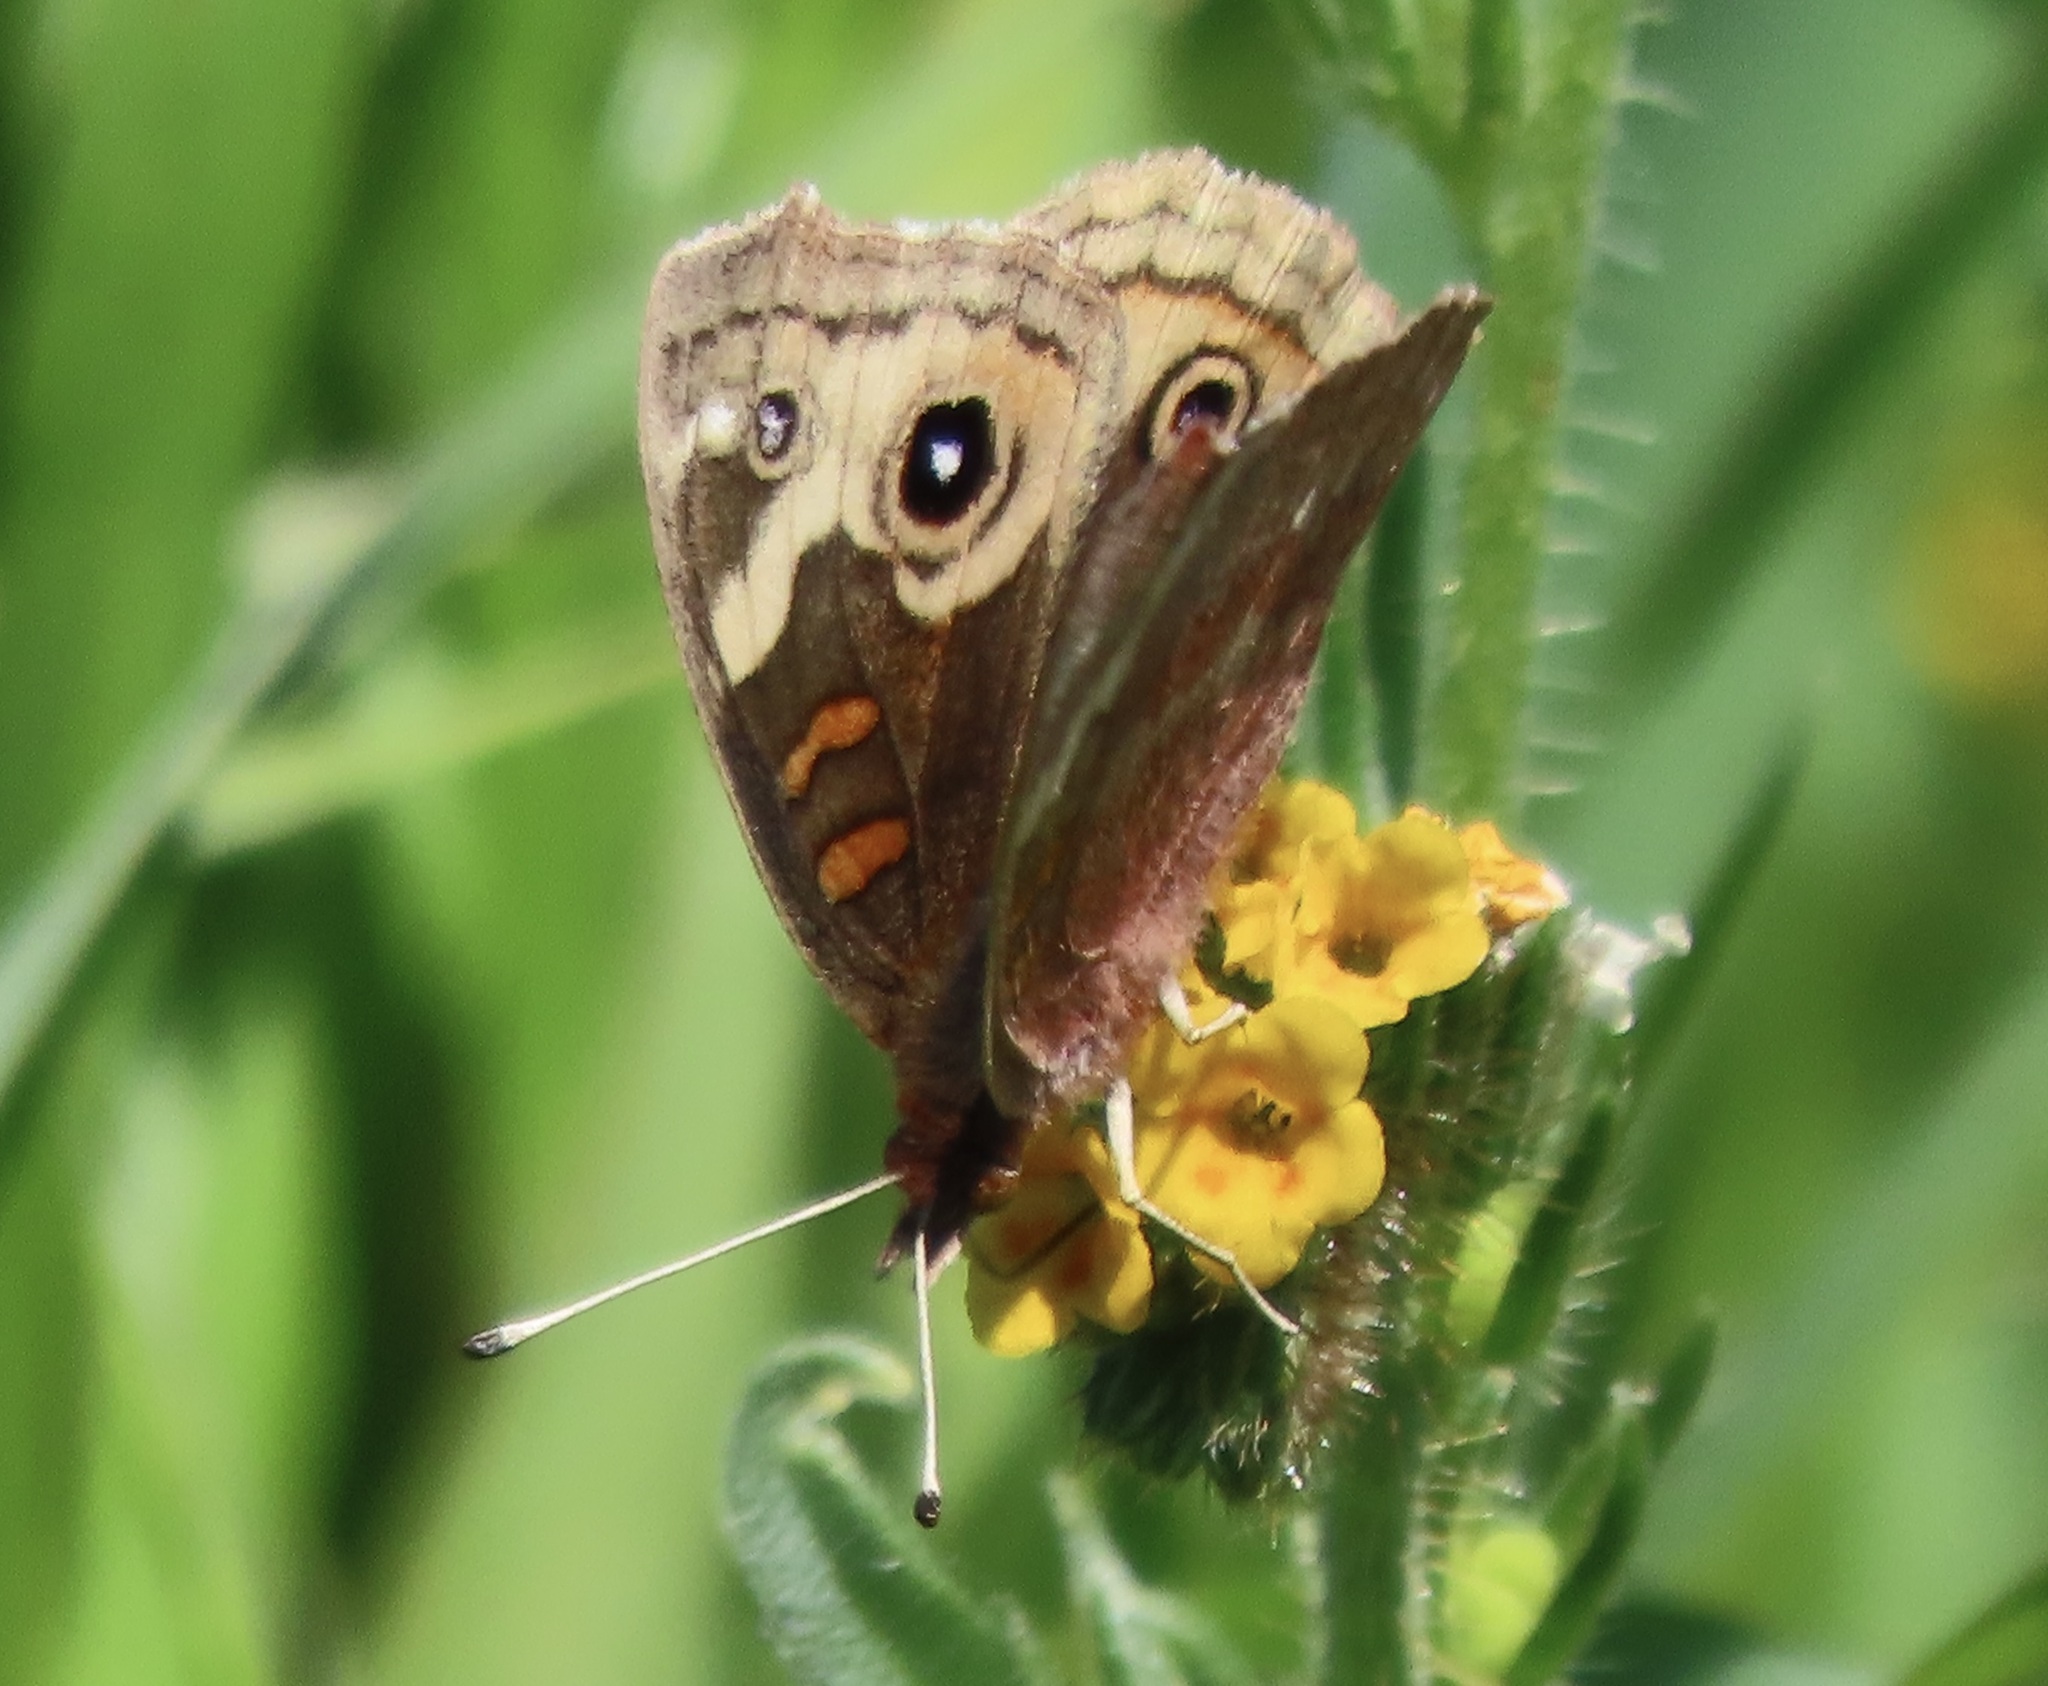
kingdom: Animalia
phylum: Arthropoda
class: Insecta
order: Lepidoptera
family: Nymphalidae
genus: Junonia
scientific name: Junonia grisea
